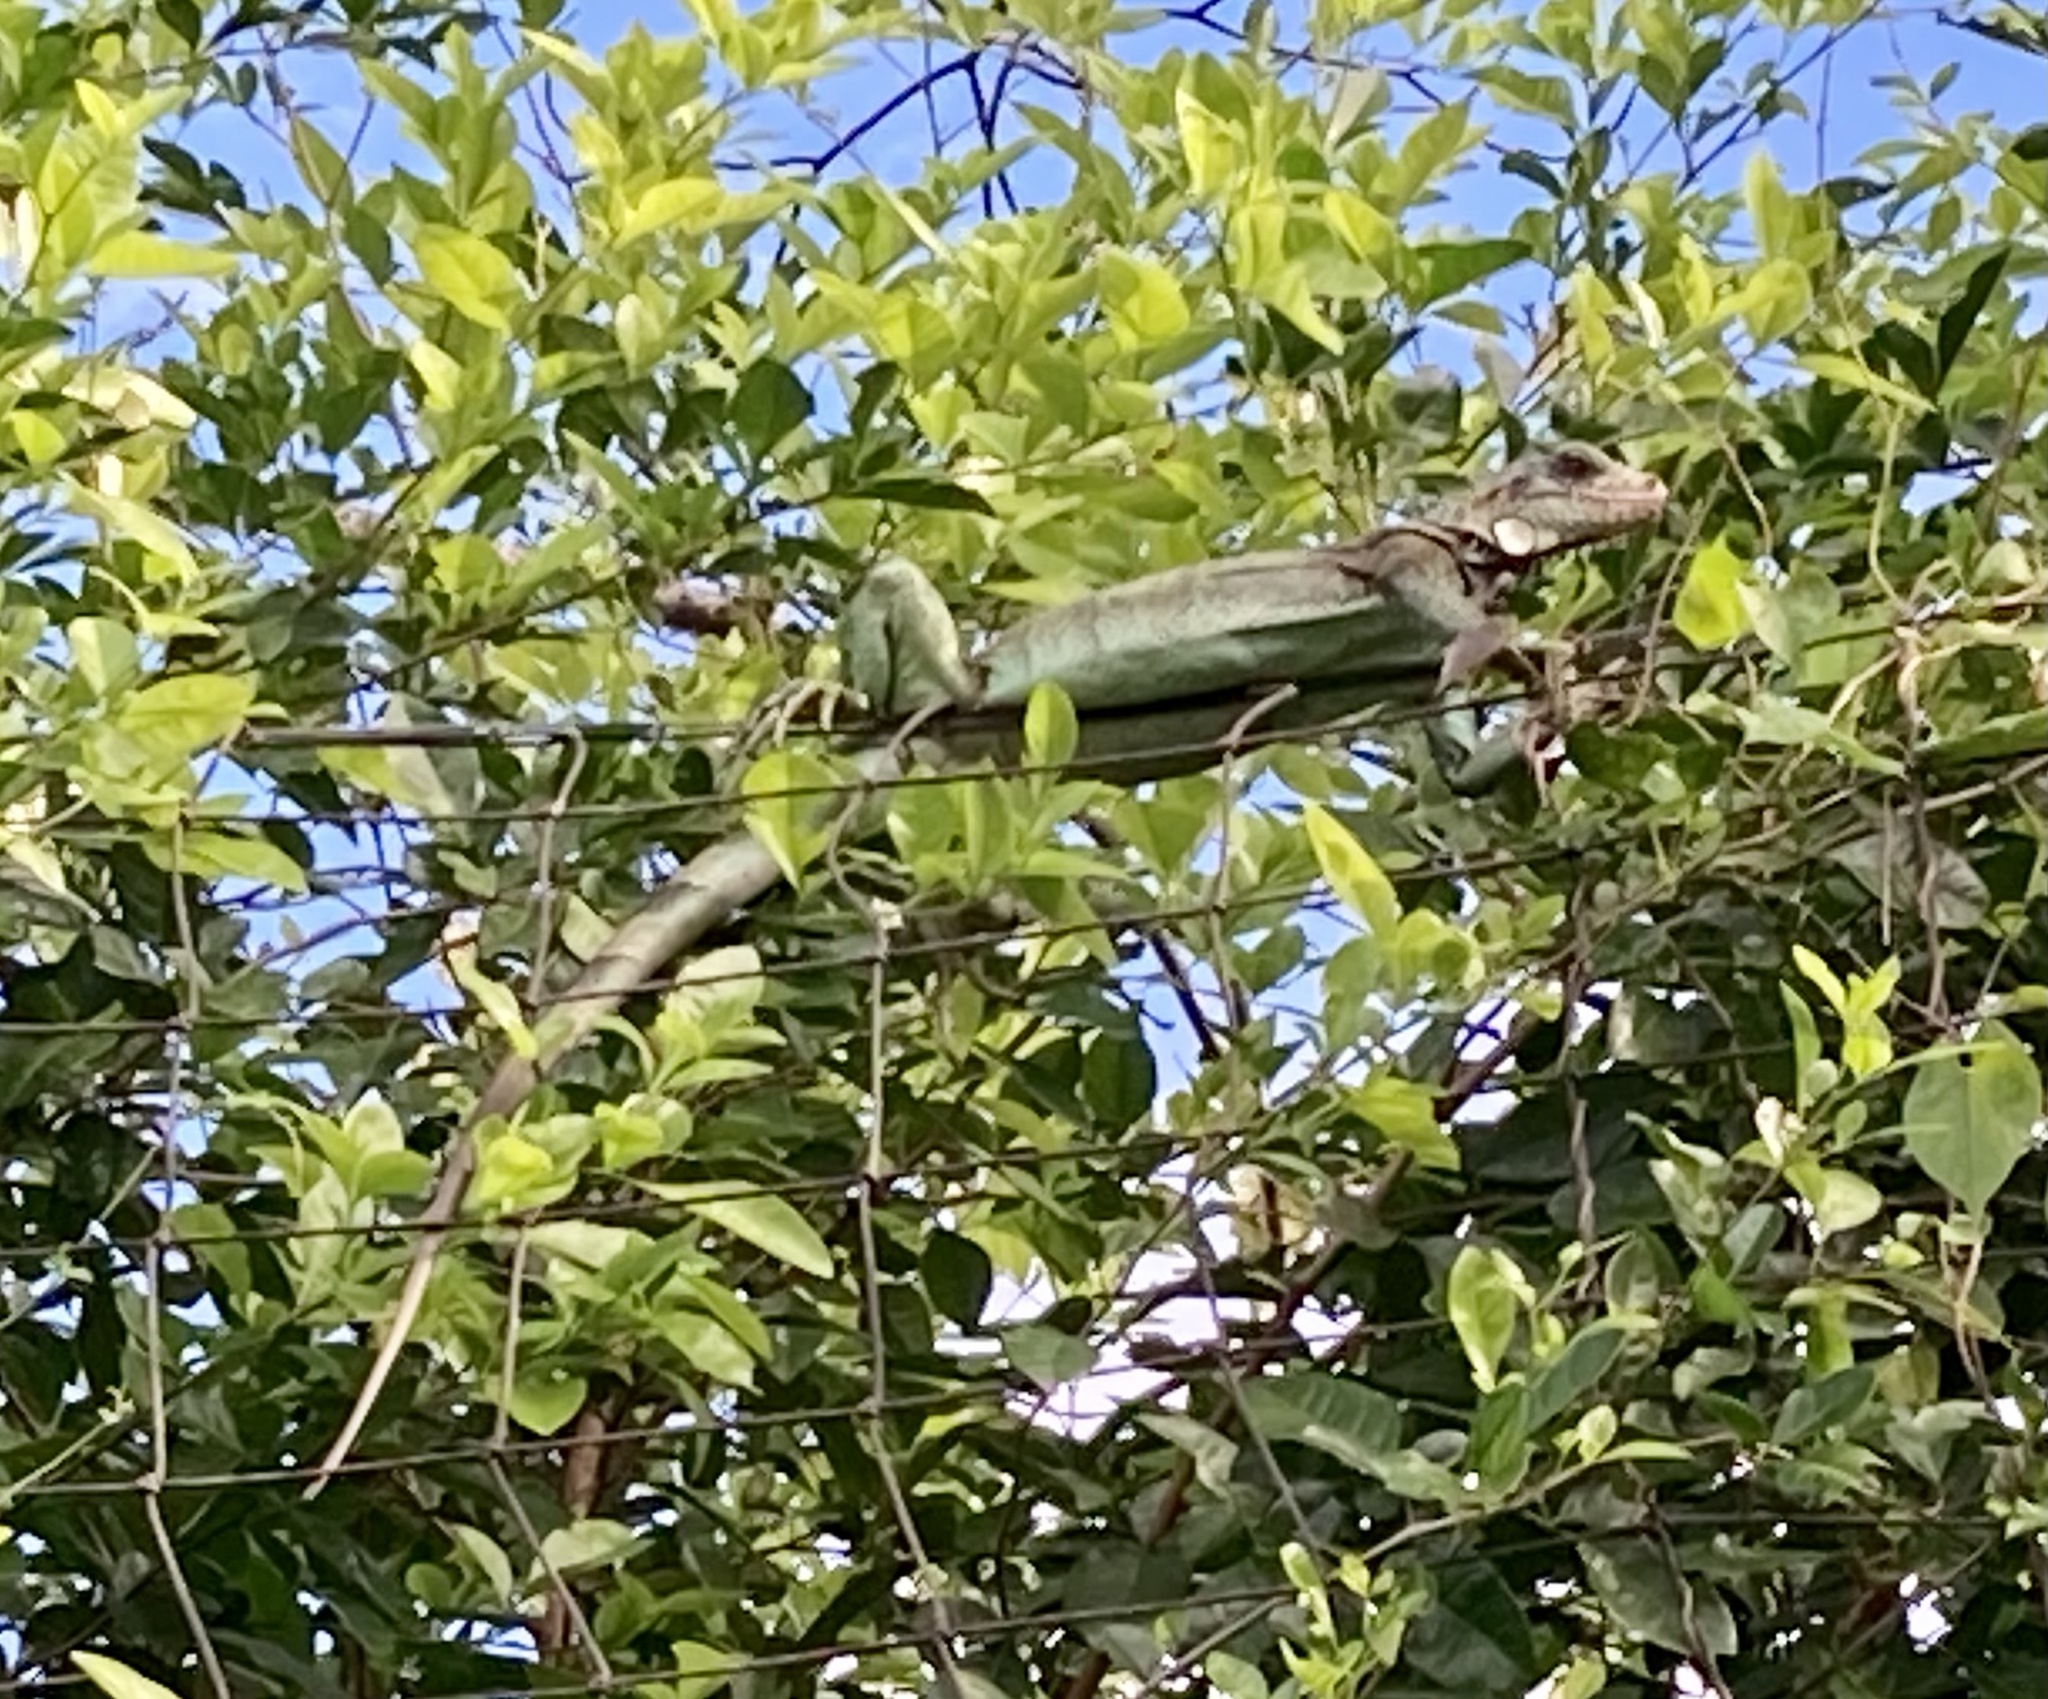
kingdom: Animalia
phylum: Chordata
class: Squamata
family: Iguanidae
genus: Iguana
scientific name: Iguana iguana
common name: Green iguana
